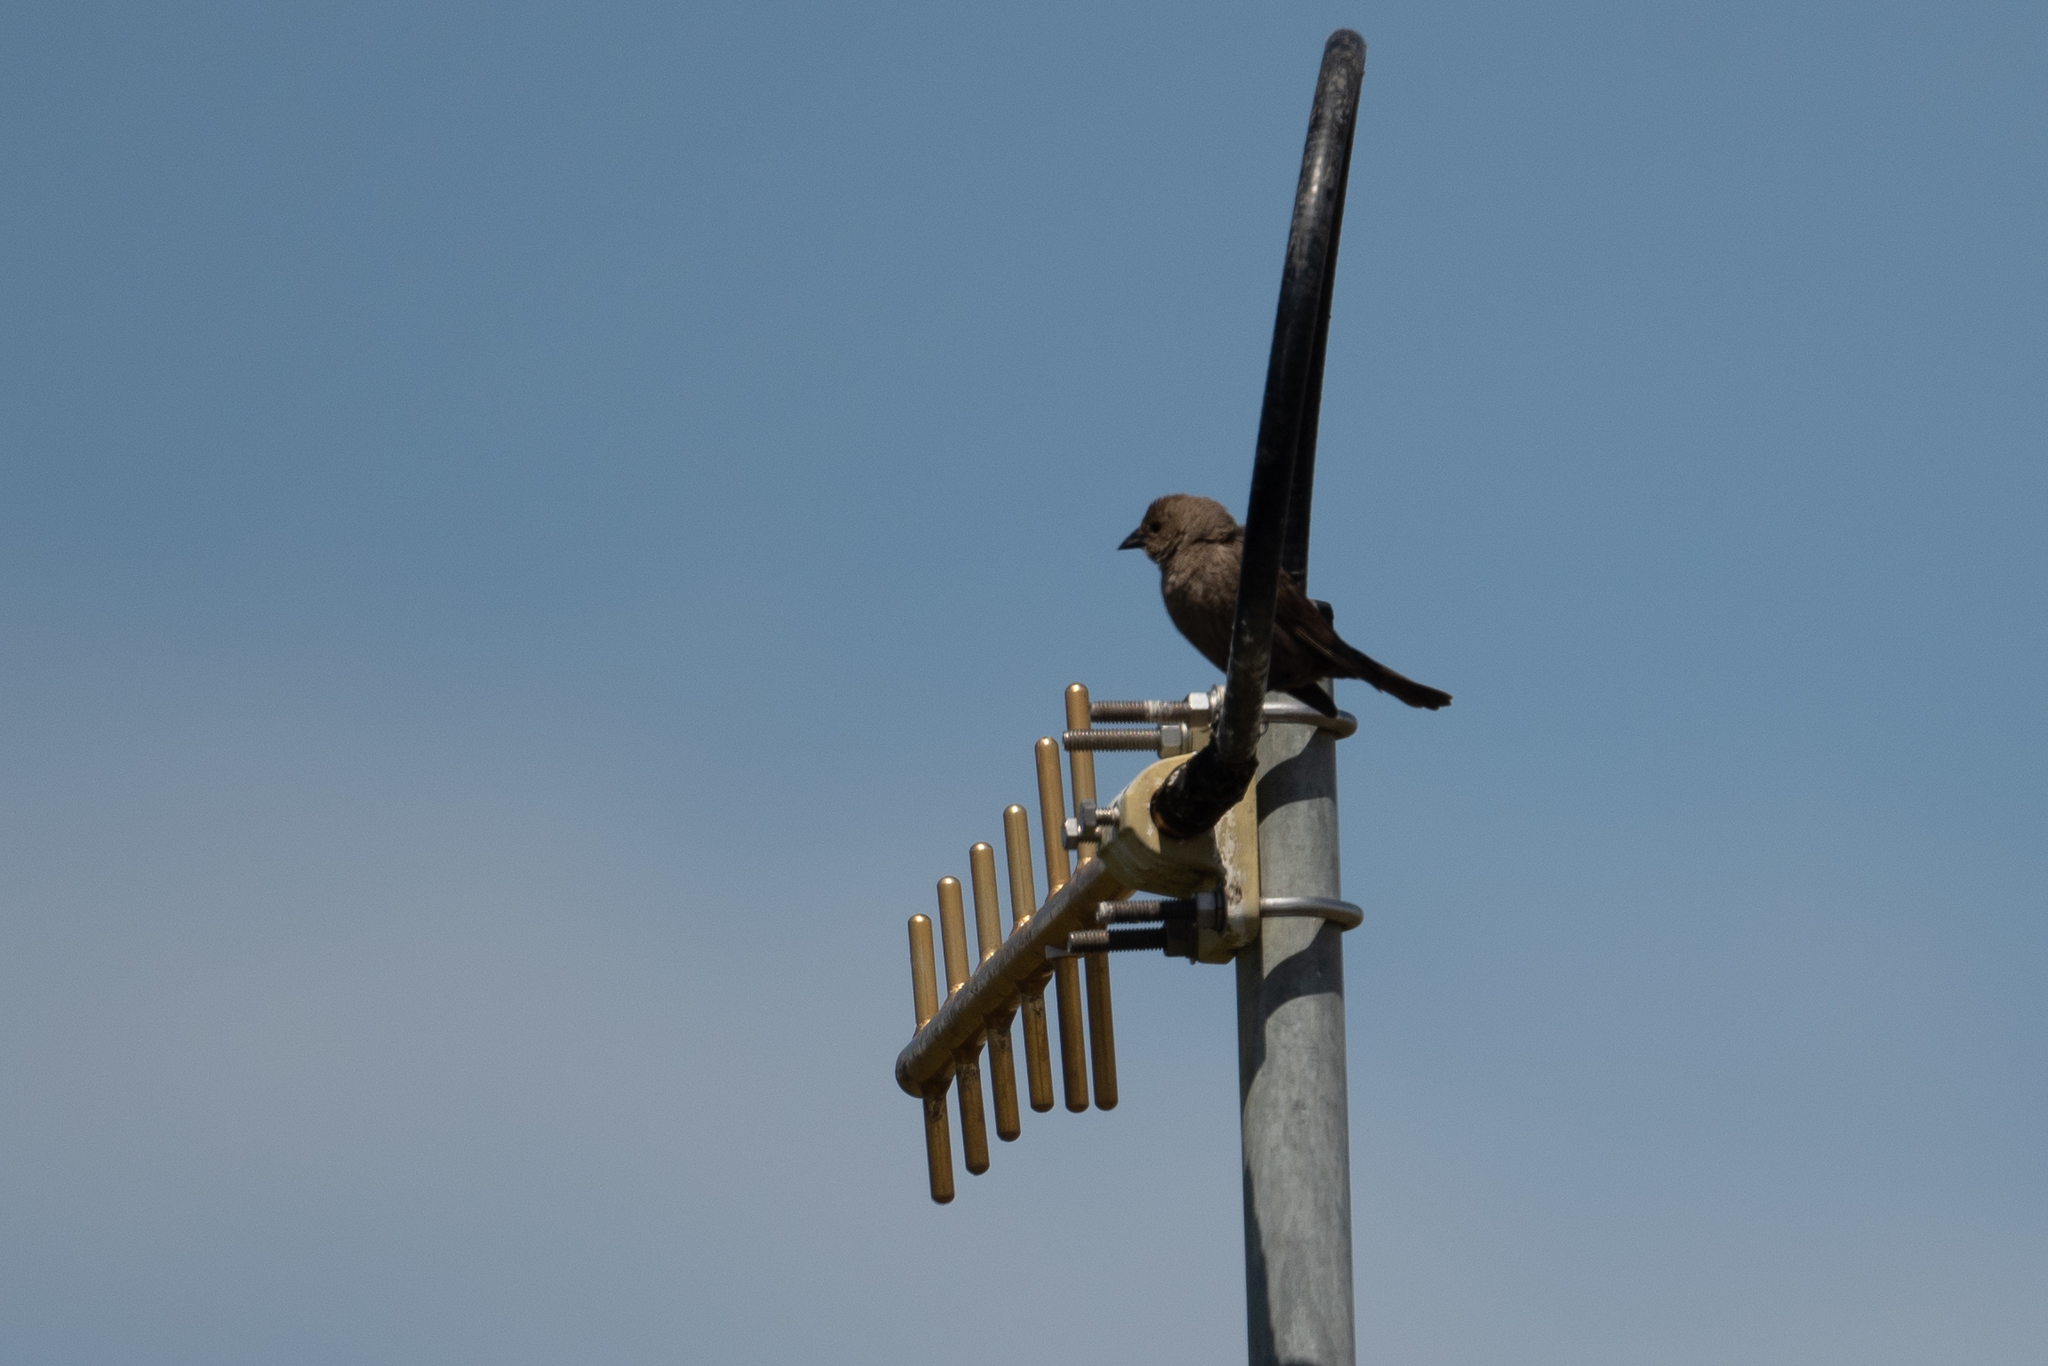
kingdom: Animalia
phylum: Chordata
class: Aves
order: Passeriformes
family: Icteridae
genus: Molothrus
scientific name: Molothrus ater
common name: Brown-headed cowbird
